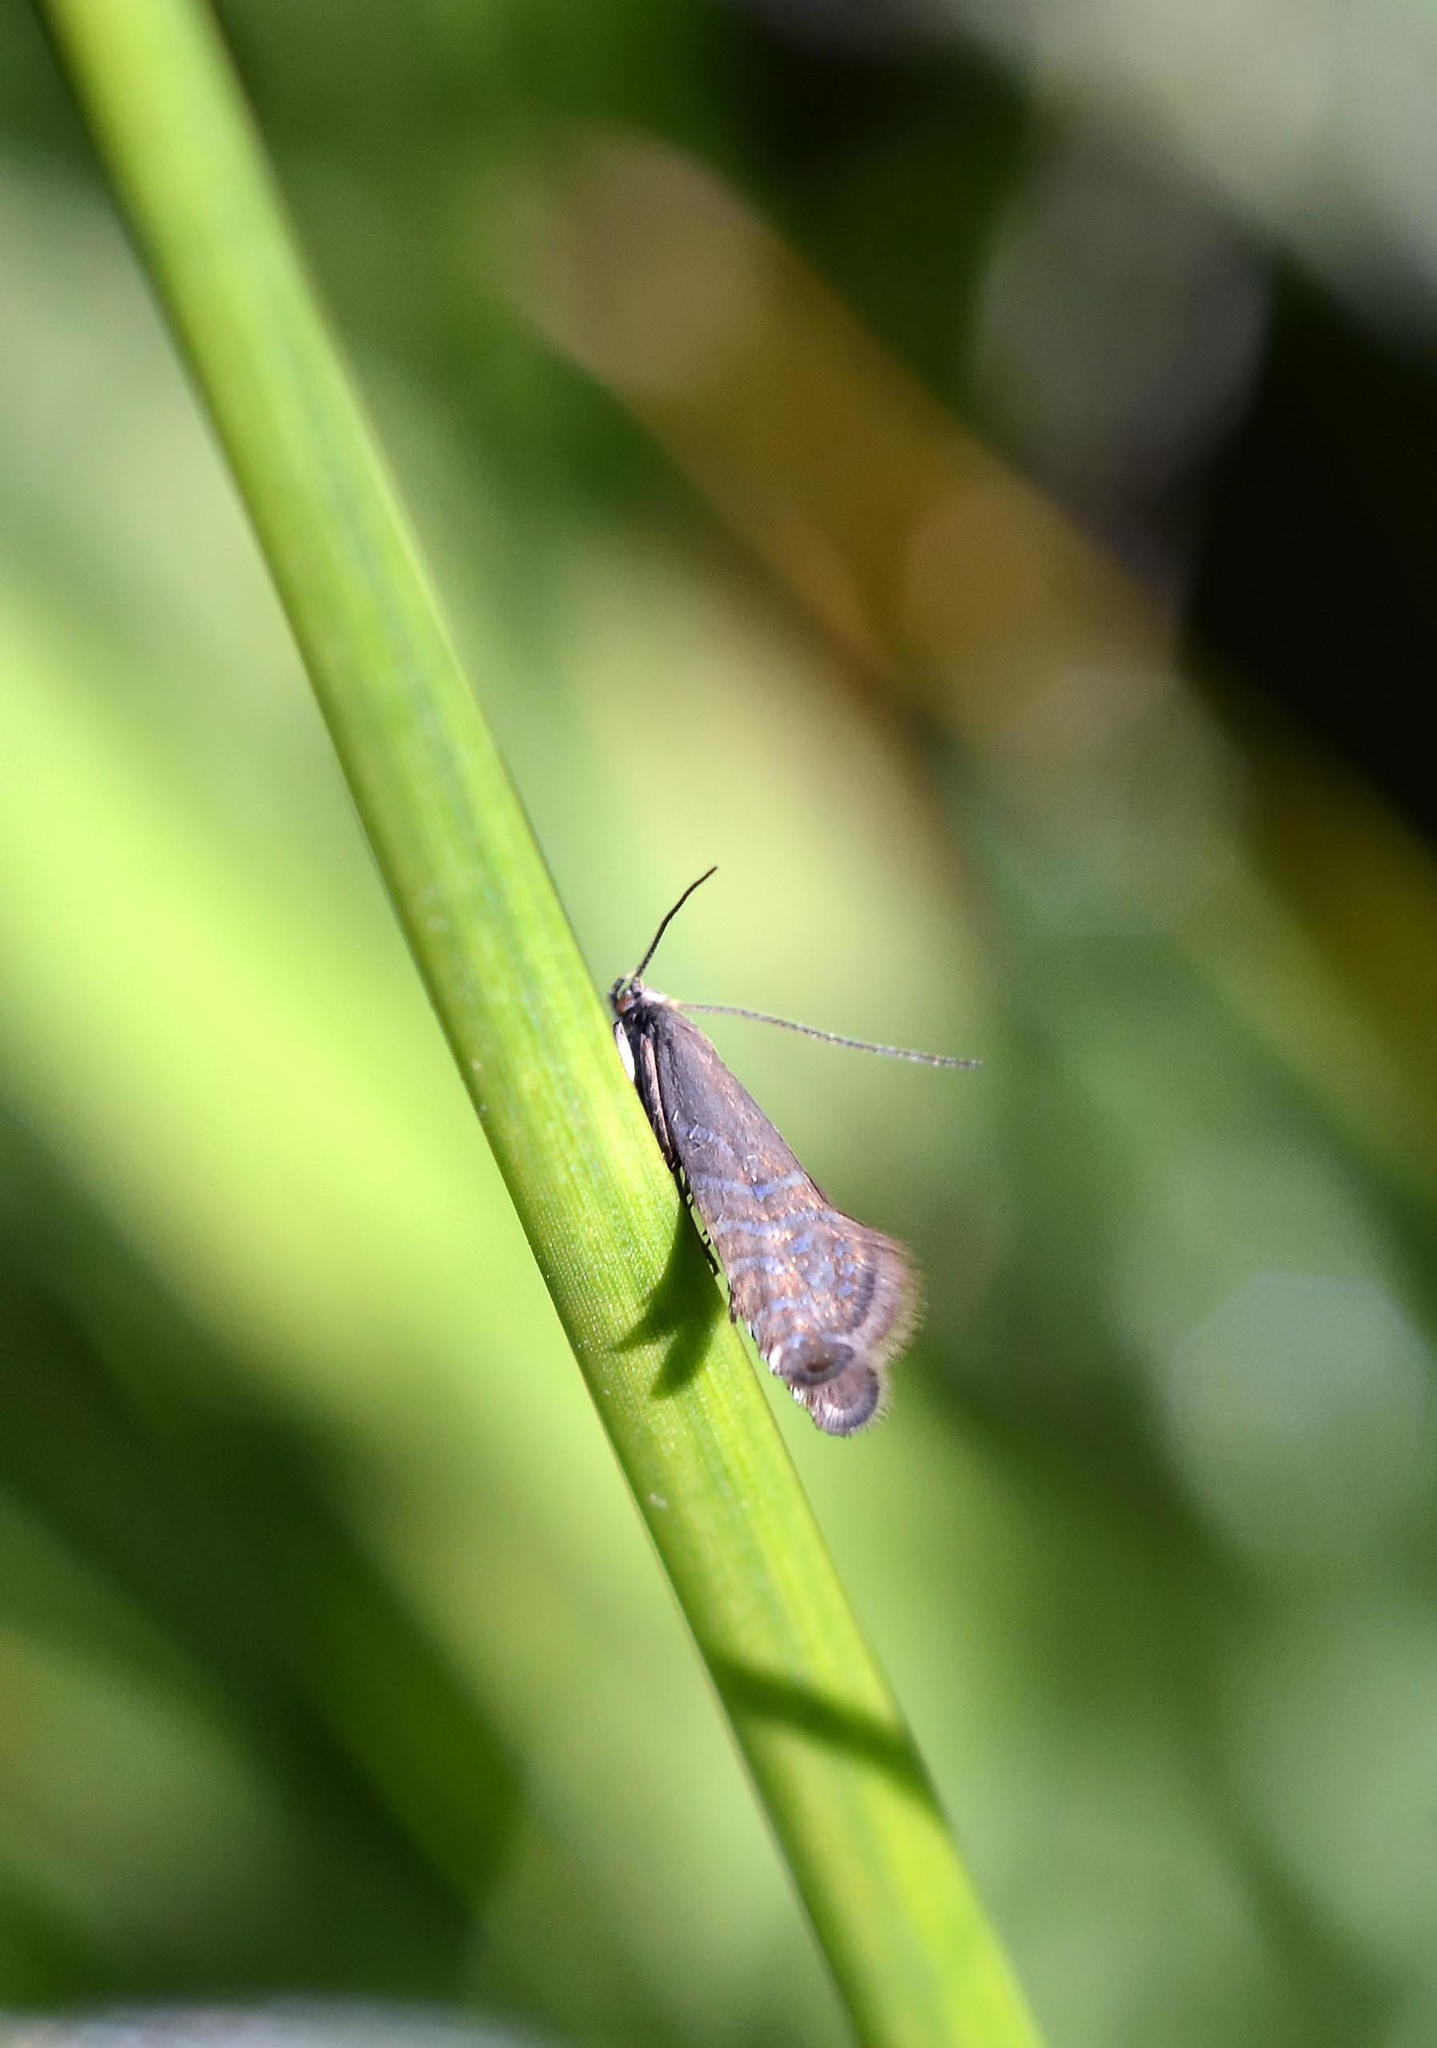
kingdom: Animalia
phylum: Arthropoda
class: Insecta
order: Lepidoptera
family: Glyphipterigidae
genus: Glyphipterix
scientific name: Glyphipterix thrasonella
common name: Speckled fanner
